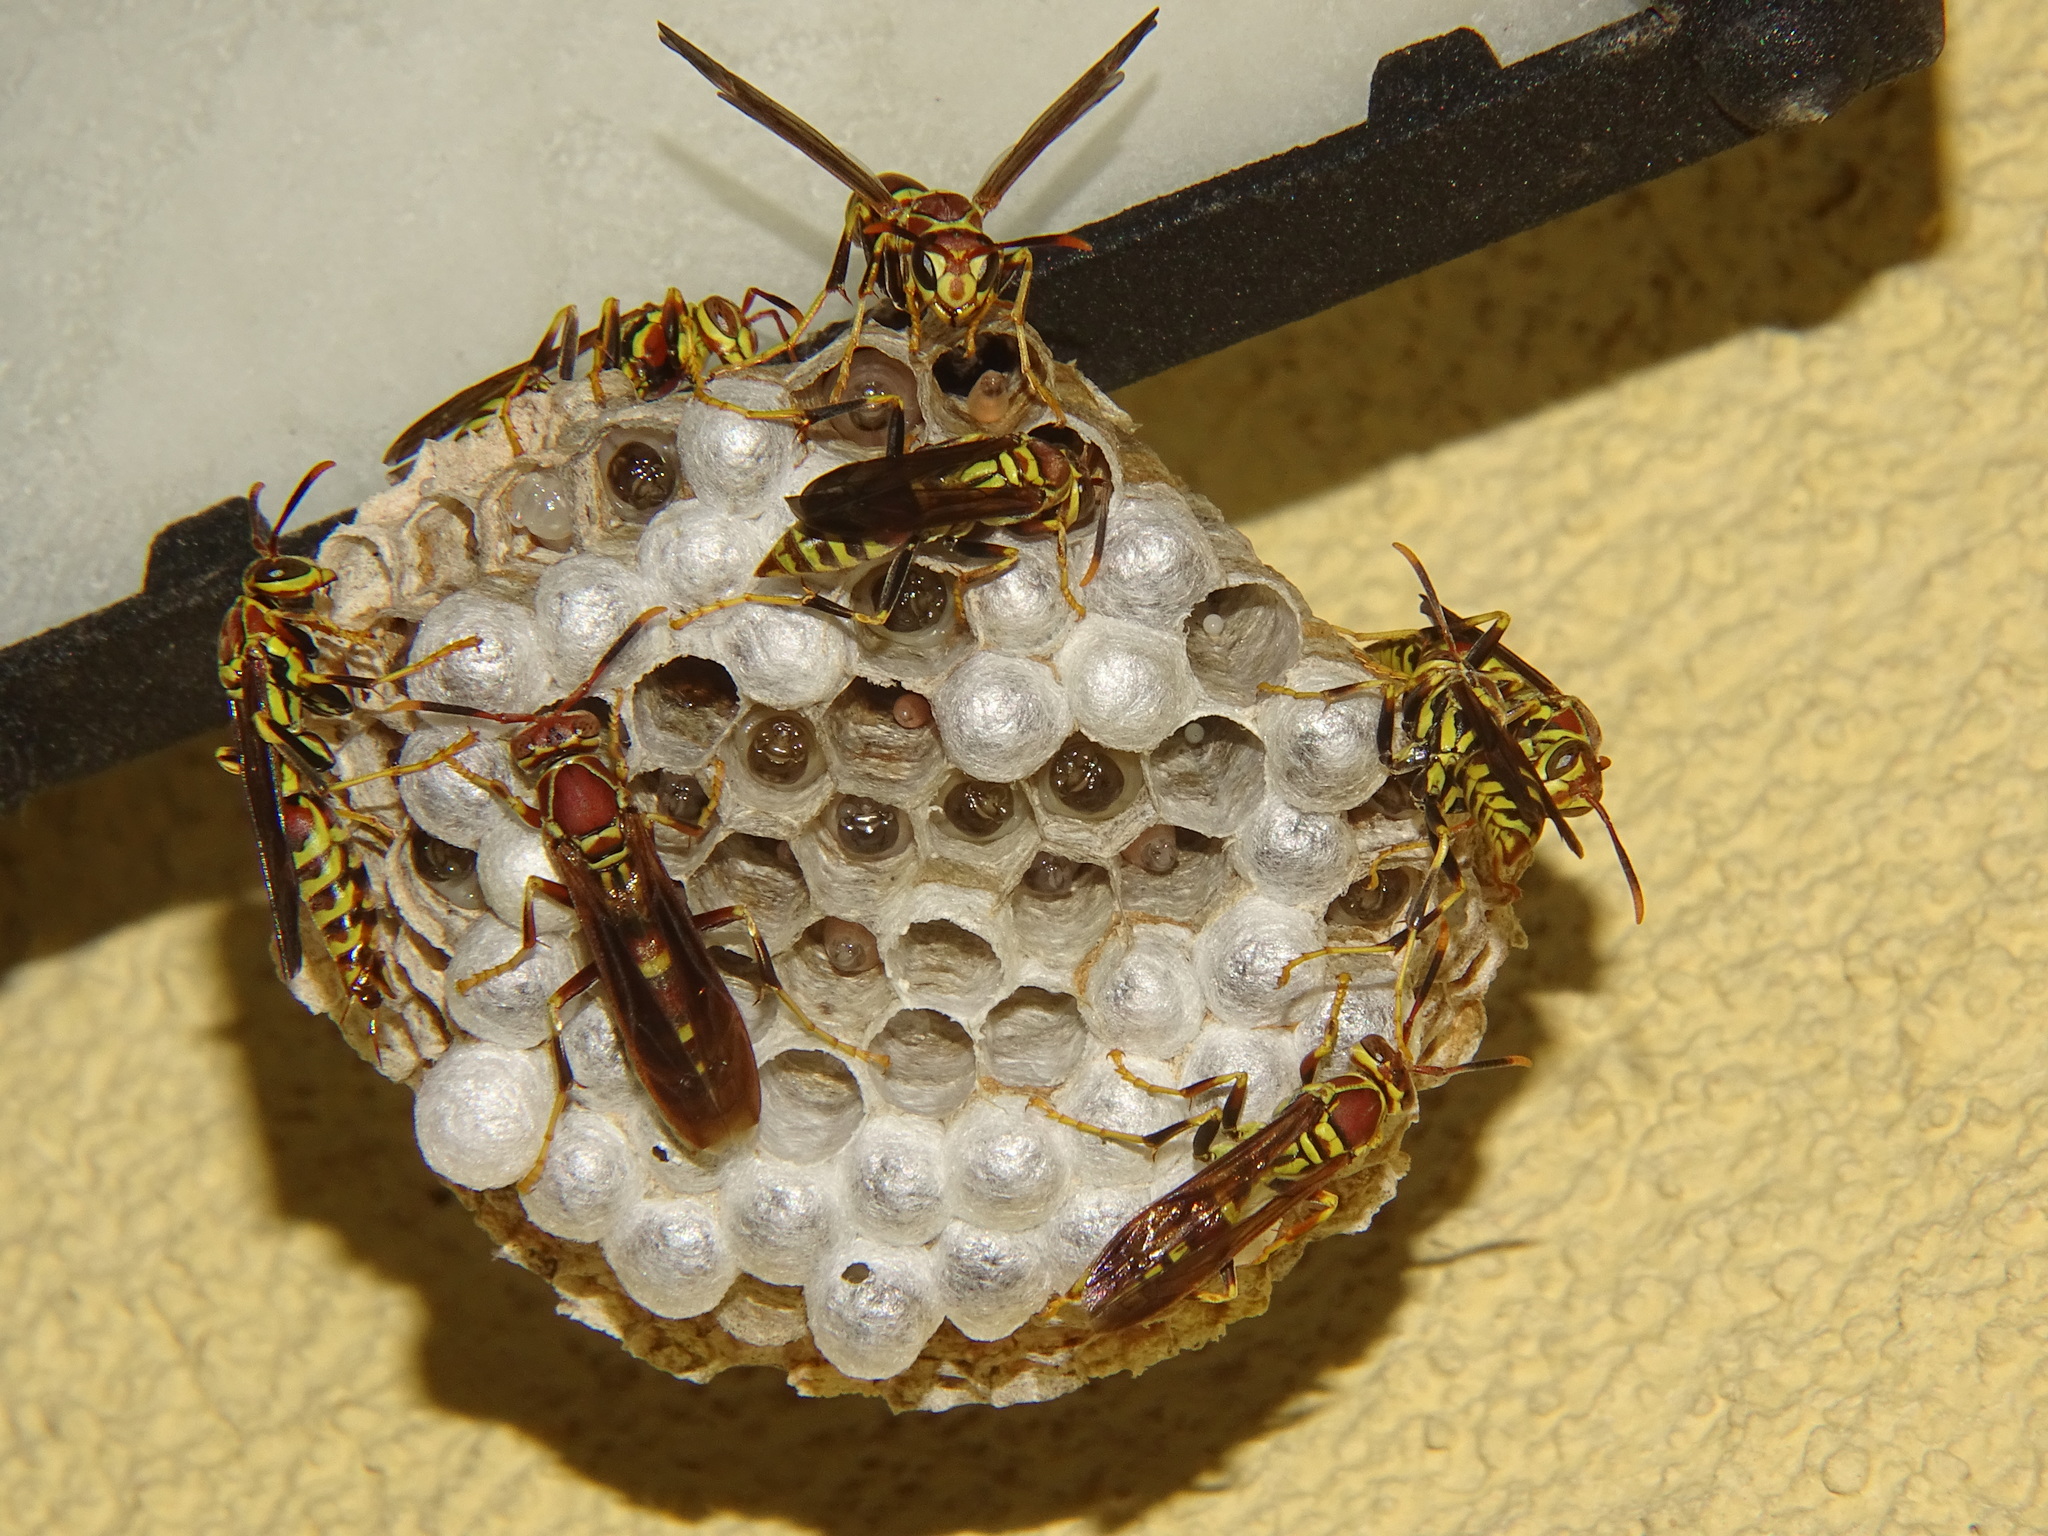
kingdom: Animalia
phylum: Arthropoda
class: Insecta
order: Hymenoptera
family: Eumenidae
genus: Polistes
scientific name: Polistes exclamans
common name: Paper wasp
